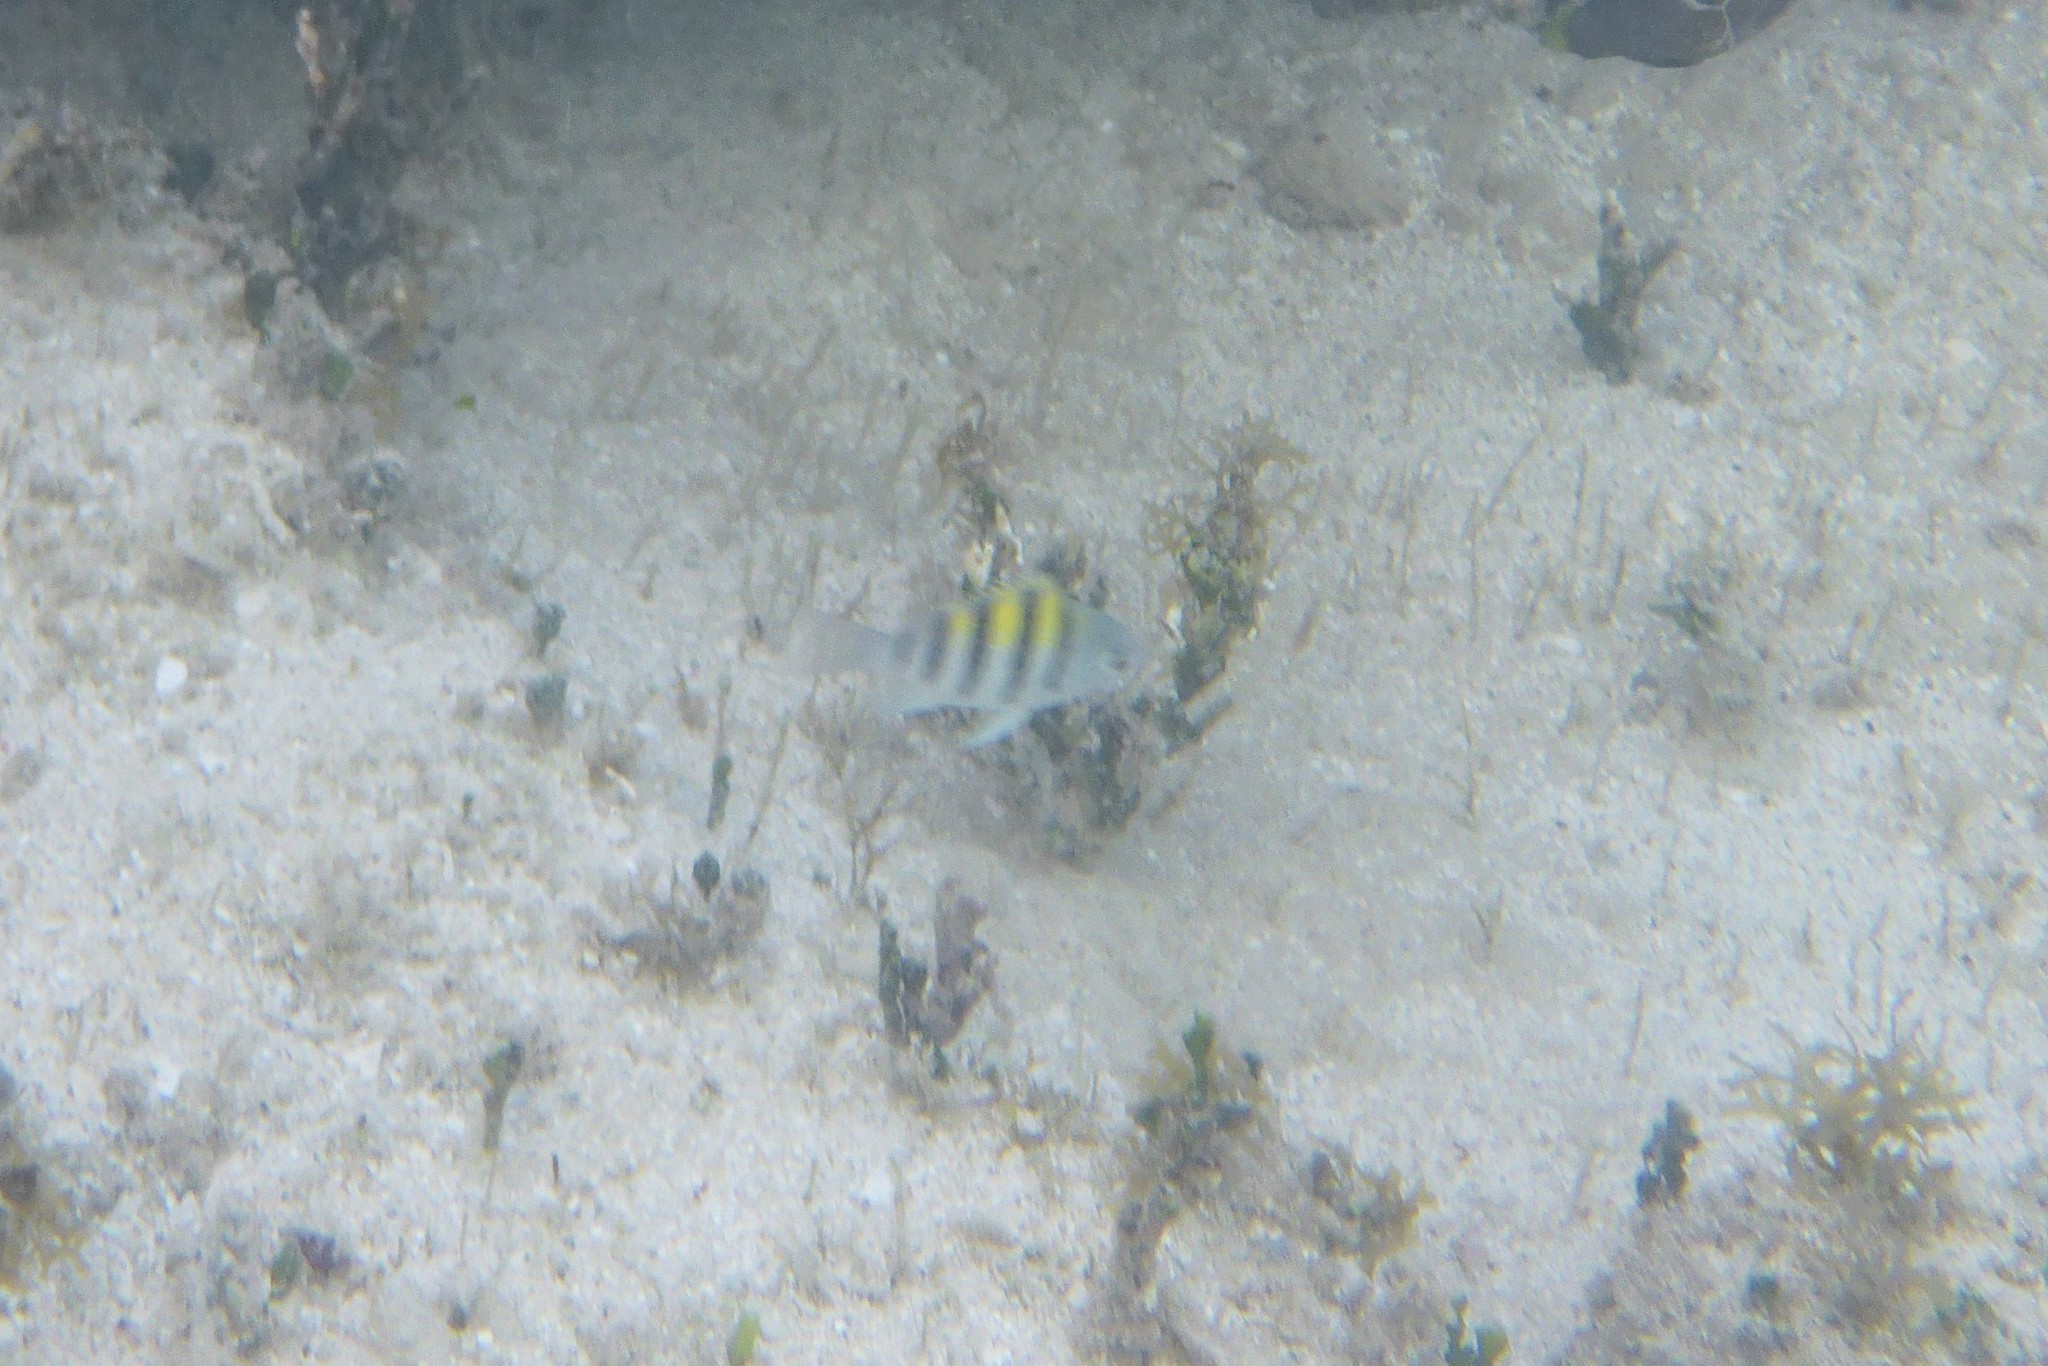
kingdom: Animalia
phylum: Chordata
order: Perciformes
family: Pomacentridae
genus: Abudefduf
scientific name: Abudefduf saxatilis
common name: Sergeant major
